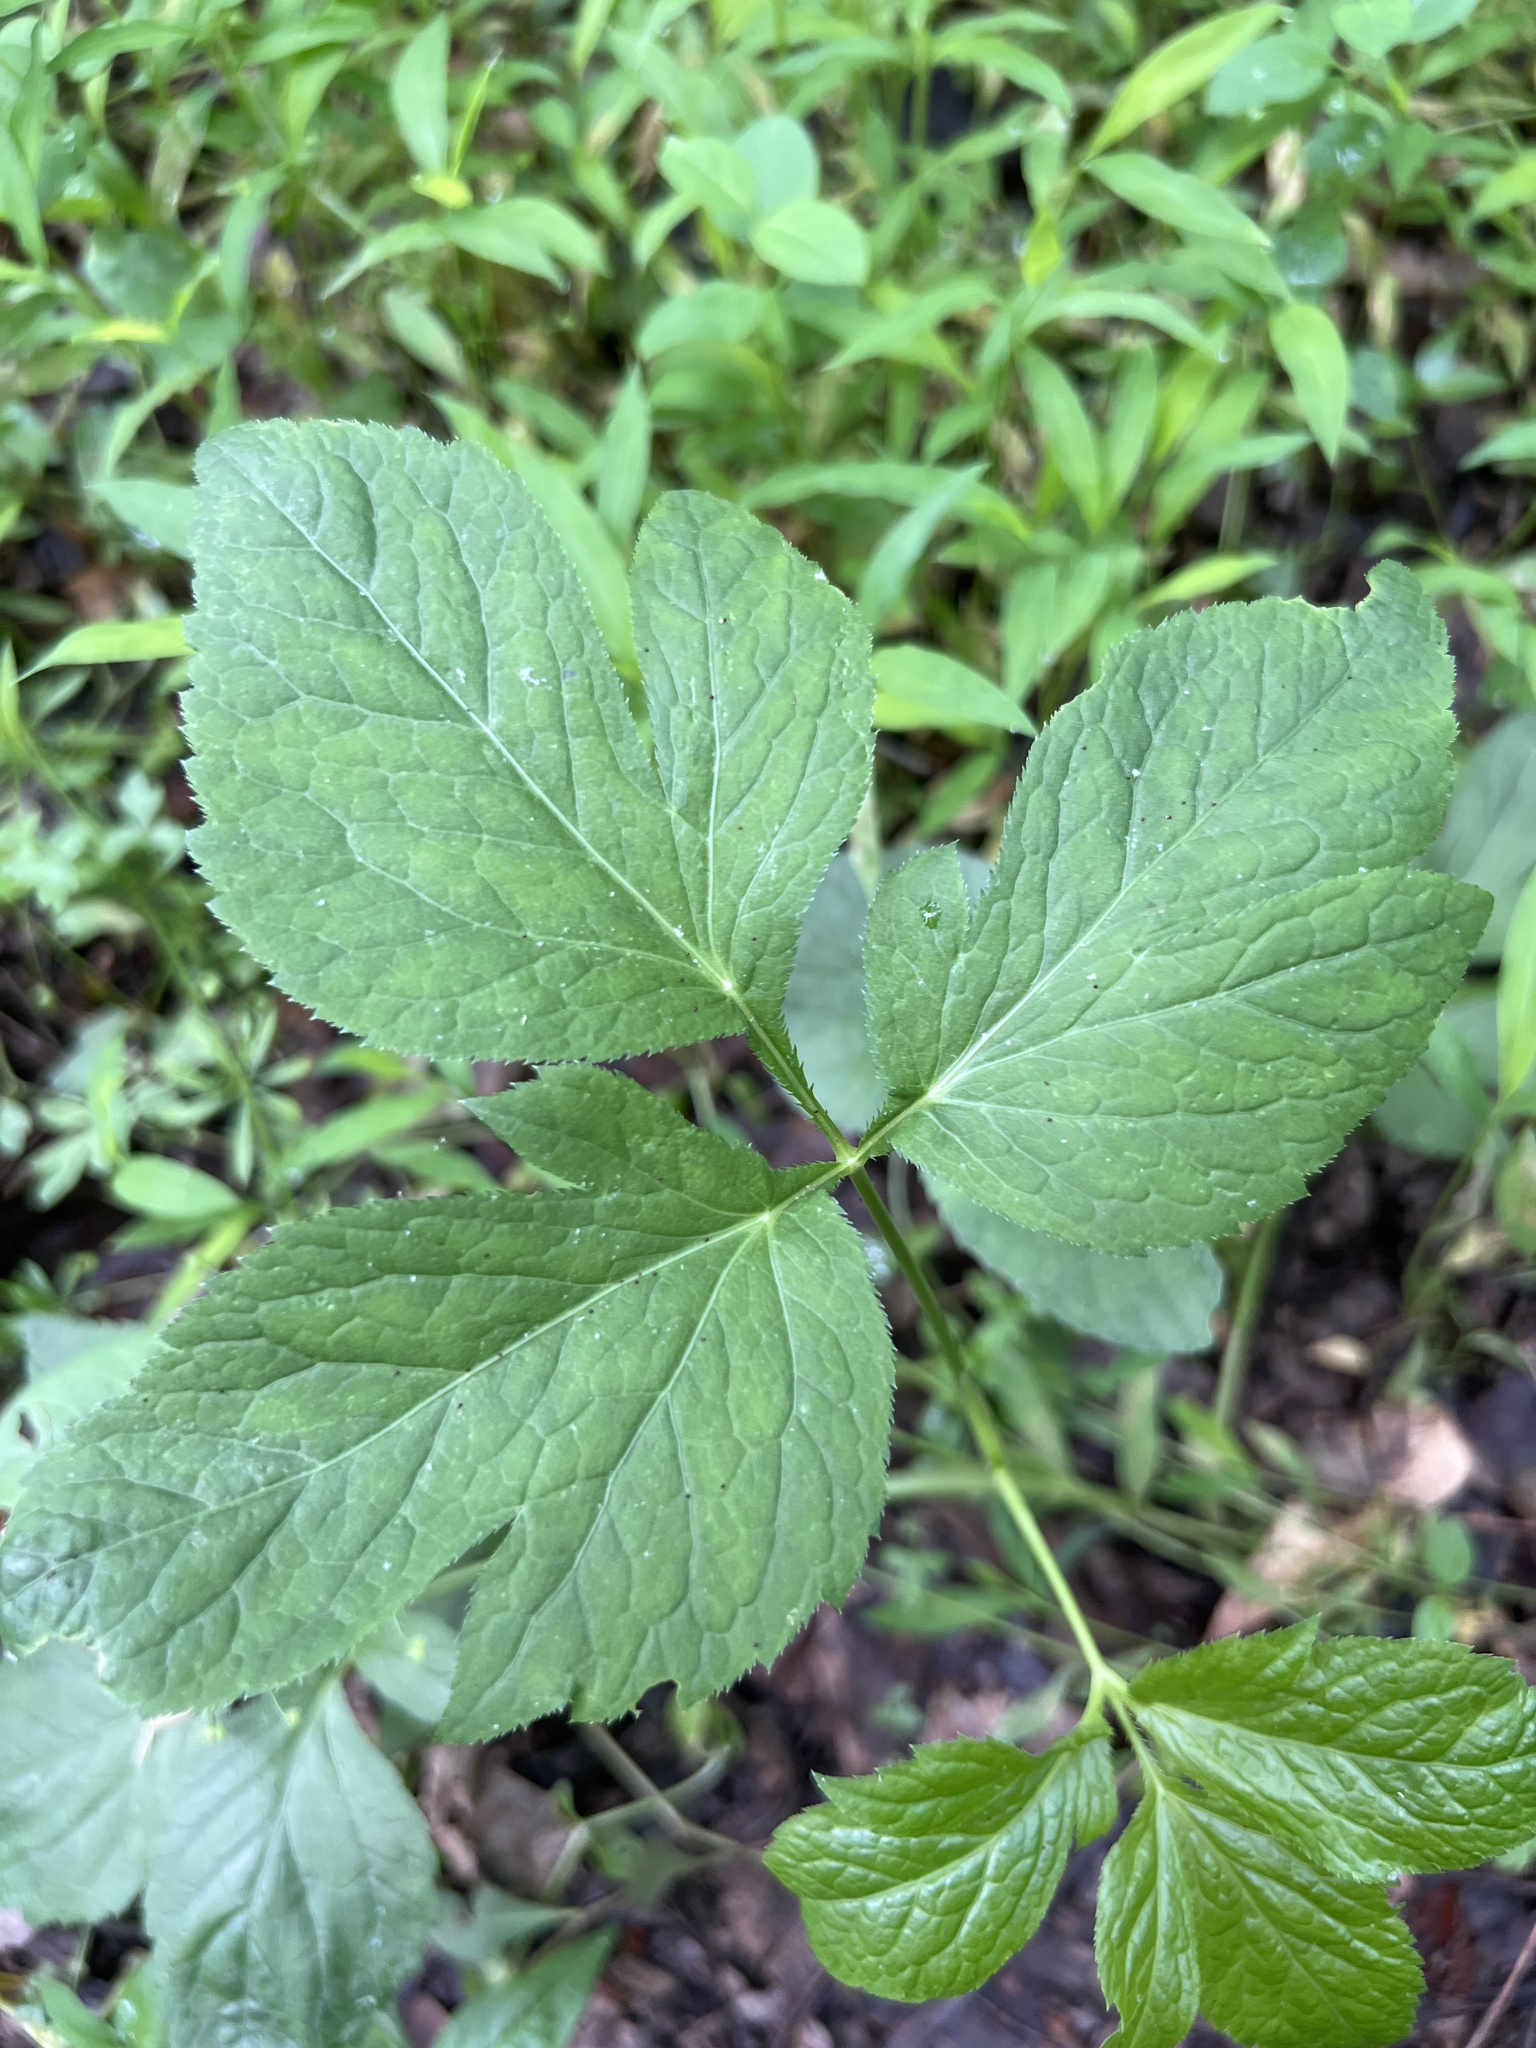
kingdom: Plantae
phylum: Tracheophyta
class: Magnoliopsida
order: Apiales
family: Apiaceae
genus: Cryptotaenia
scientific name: Cryptotaenia canadensis
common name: Honewort
